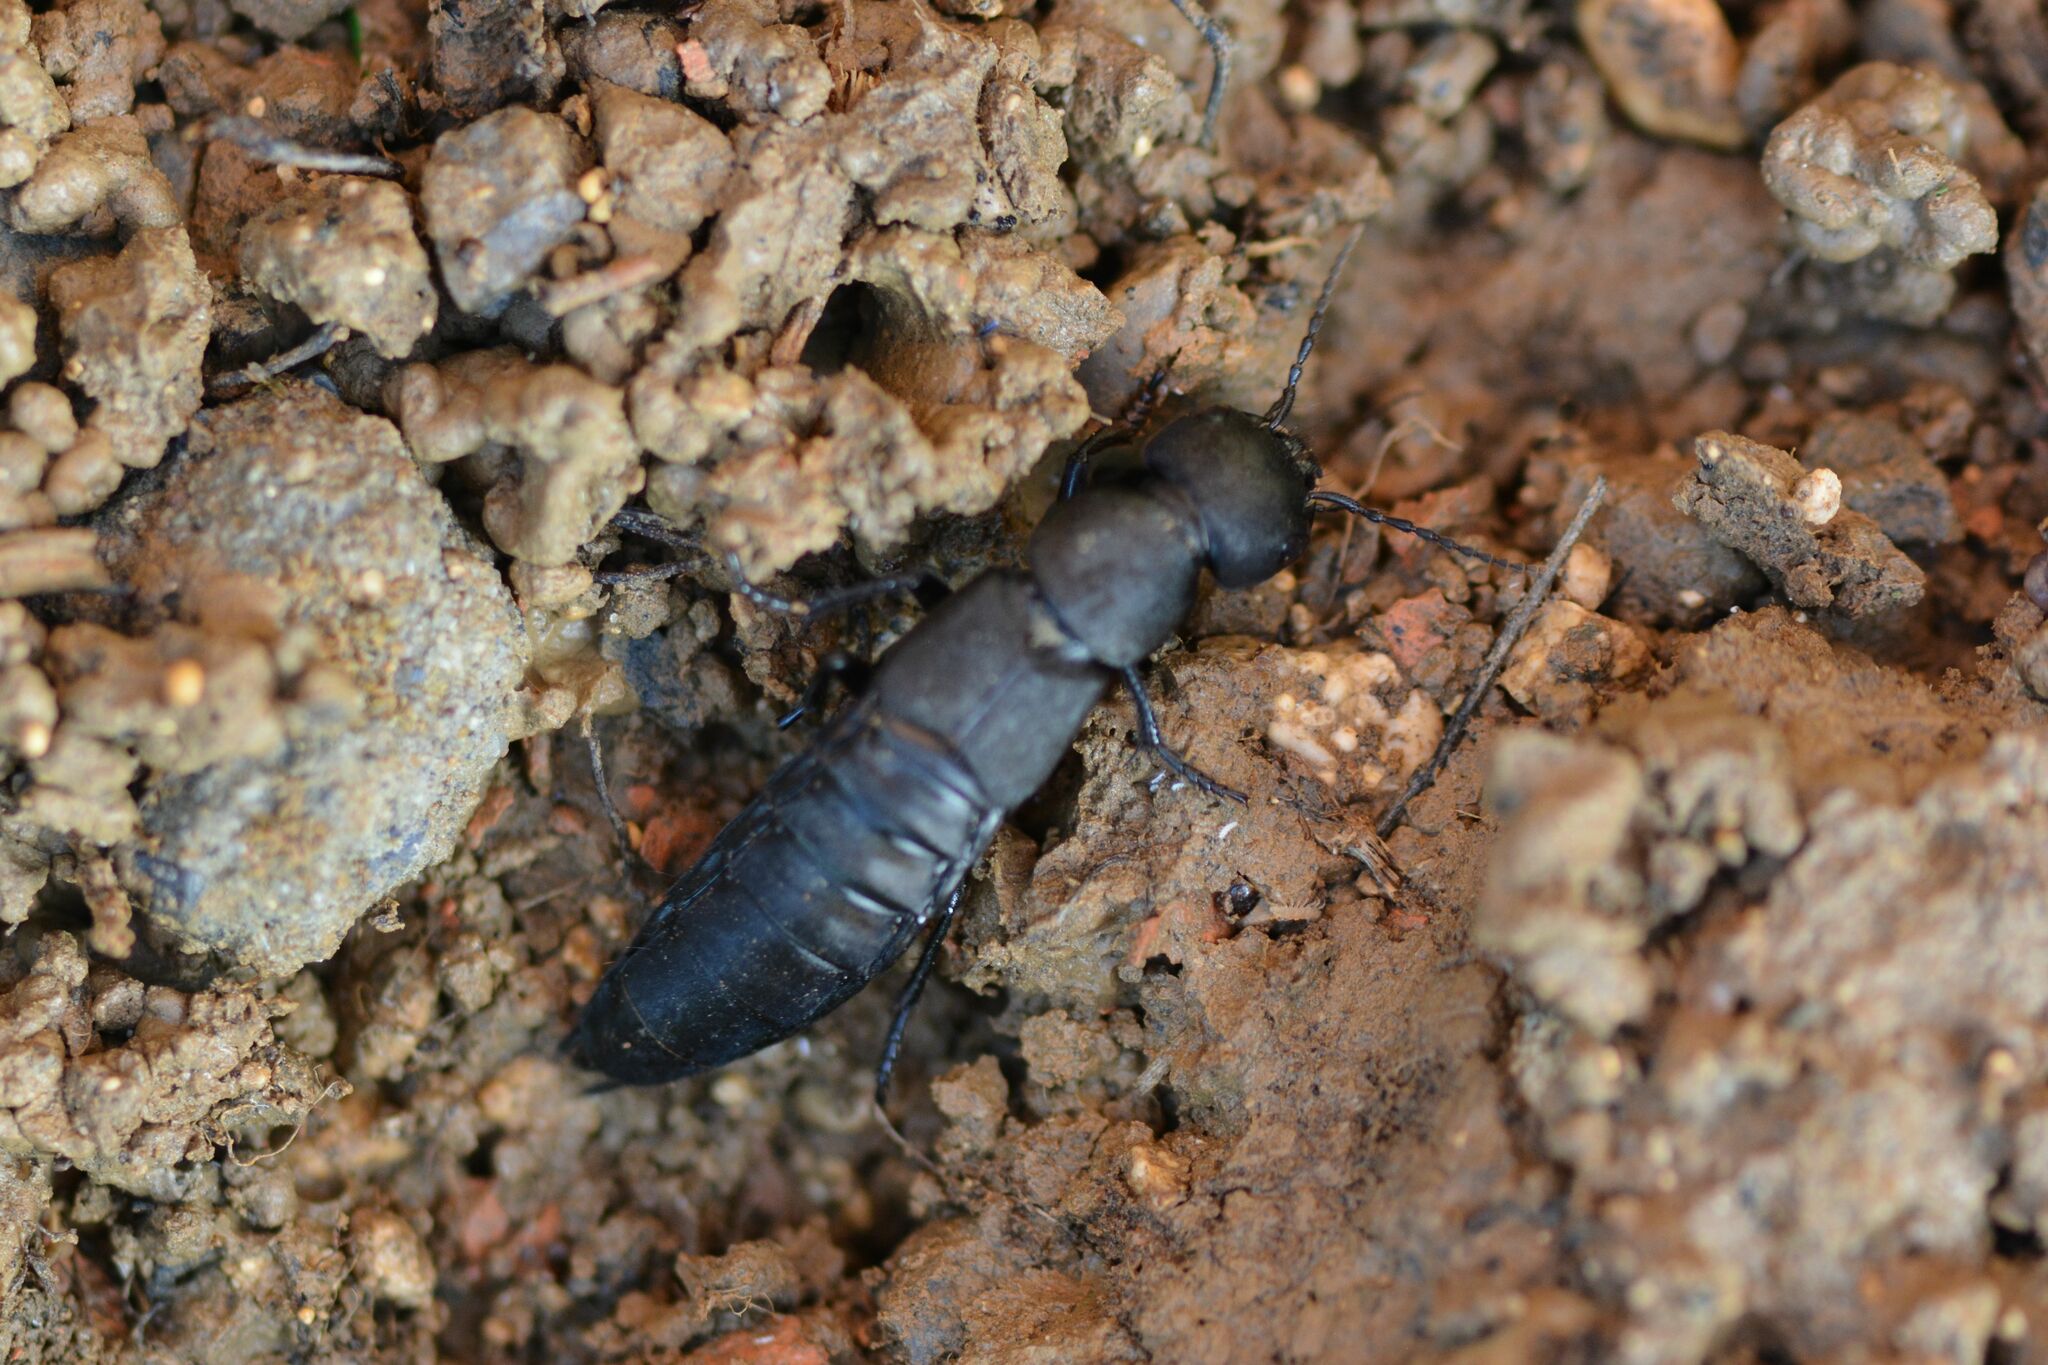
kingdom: Animalia
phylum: Arthropoda
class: Insecta
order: Coleoptera
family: Staphylinidae
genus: Ocypus
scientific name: Ocypus olens
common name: Devil's coach-horse
